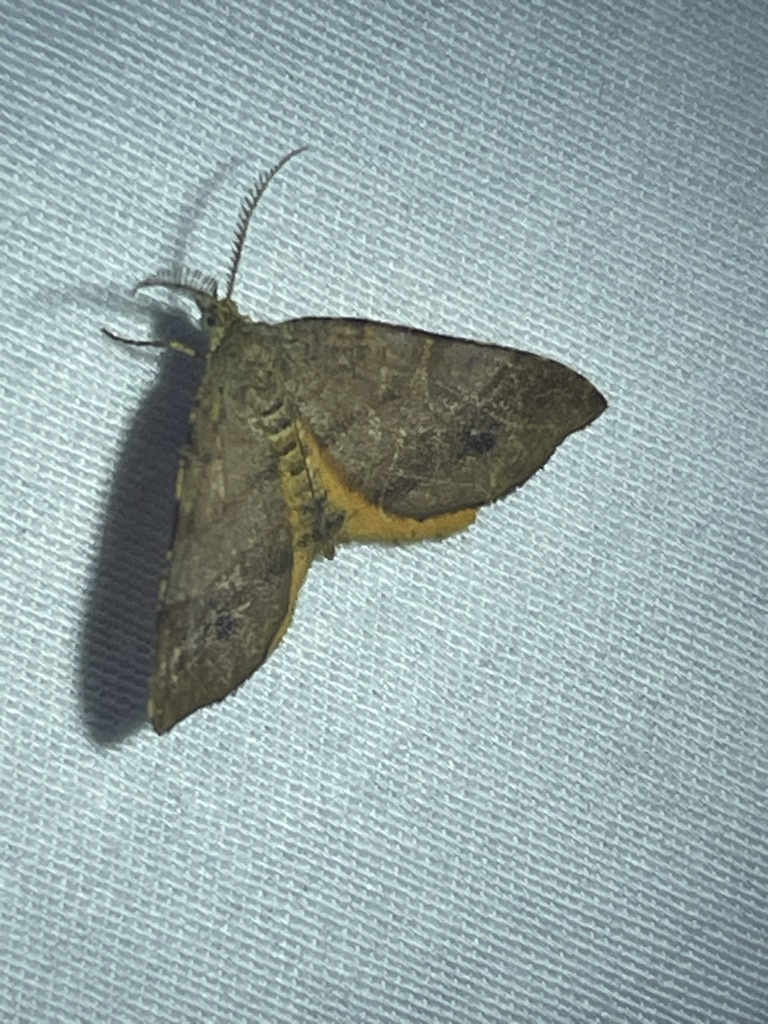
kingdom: Animalia
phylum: Arthropoda
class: Insecta
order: Lepidoptera
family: Geometridae
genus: Mellilla
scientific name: Mellilla xanthometata
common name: Orange wing moth
